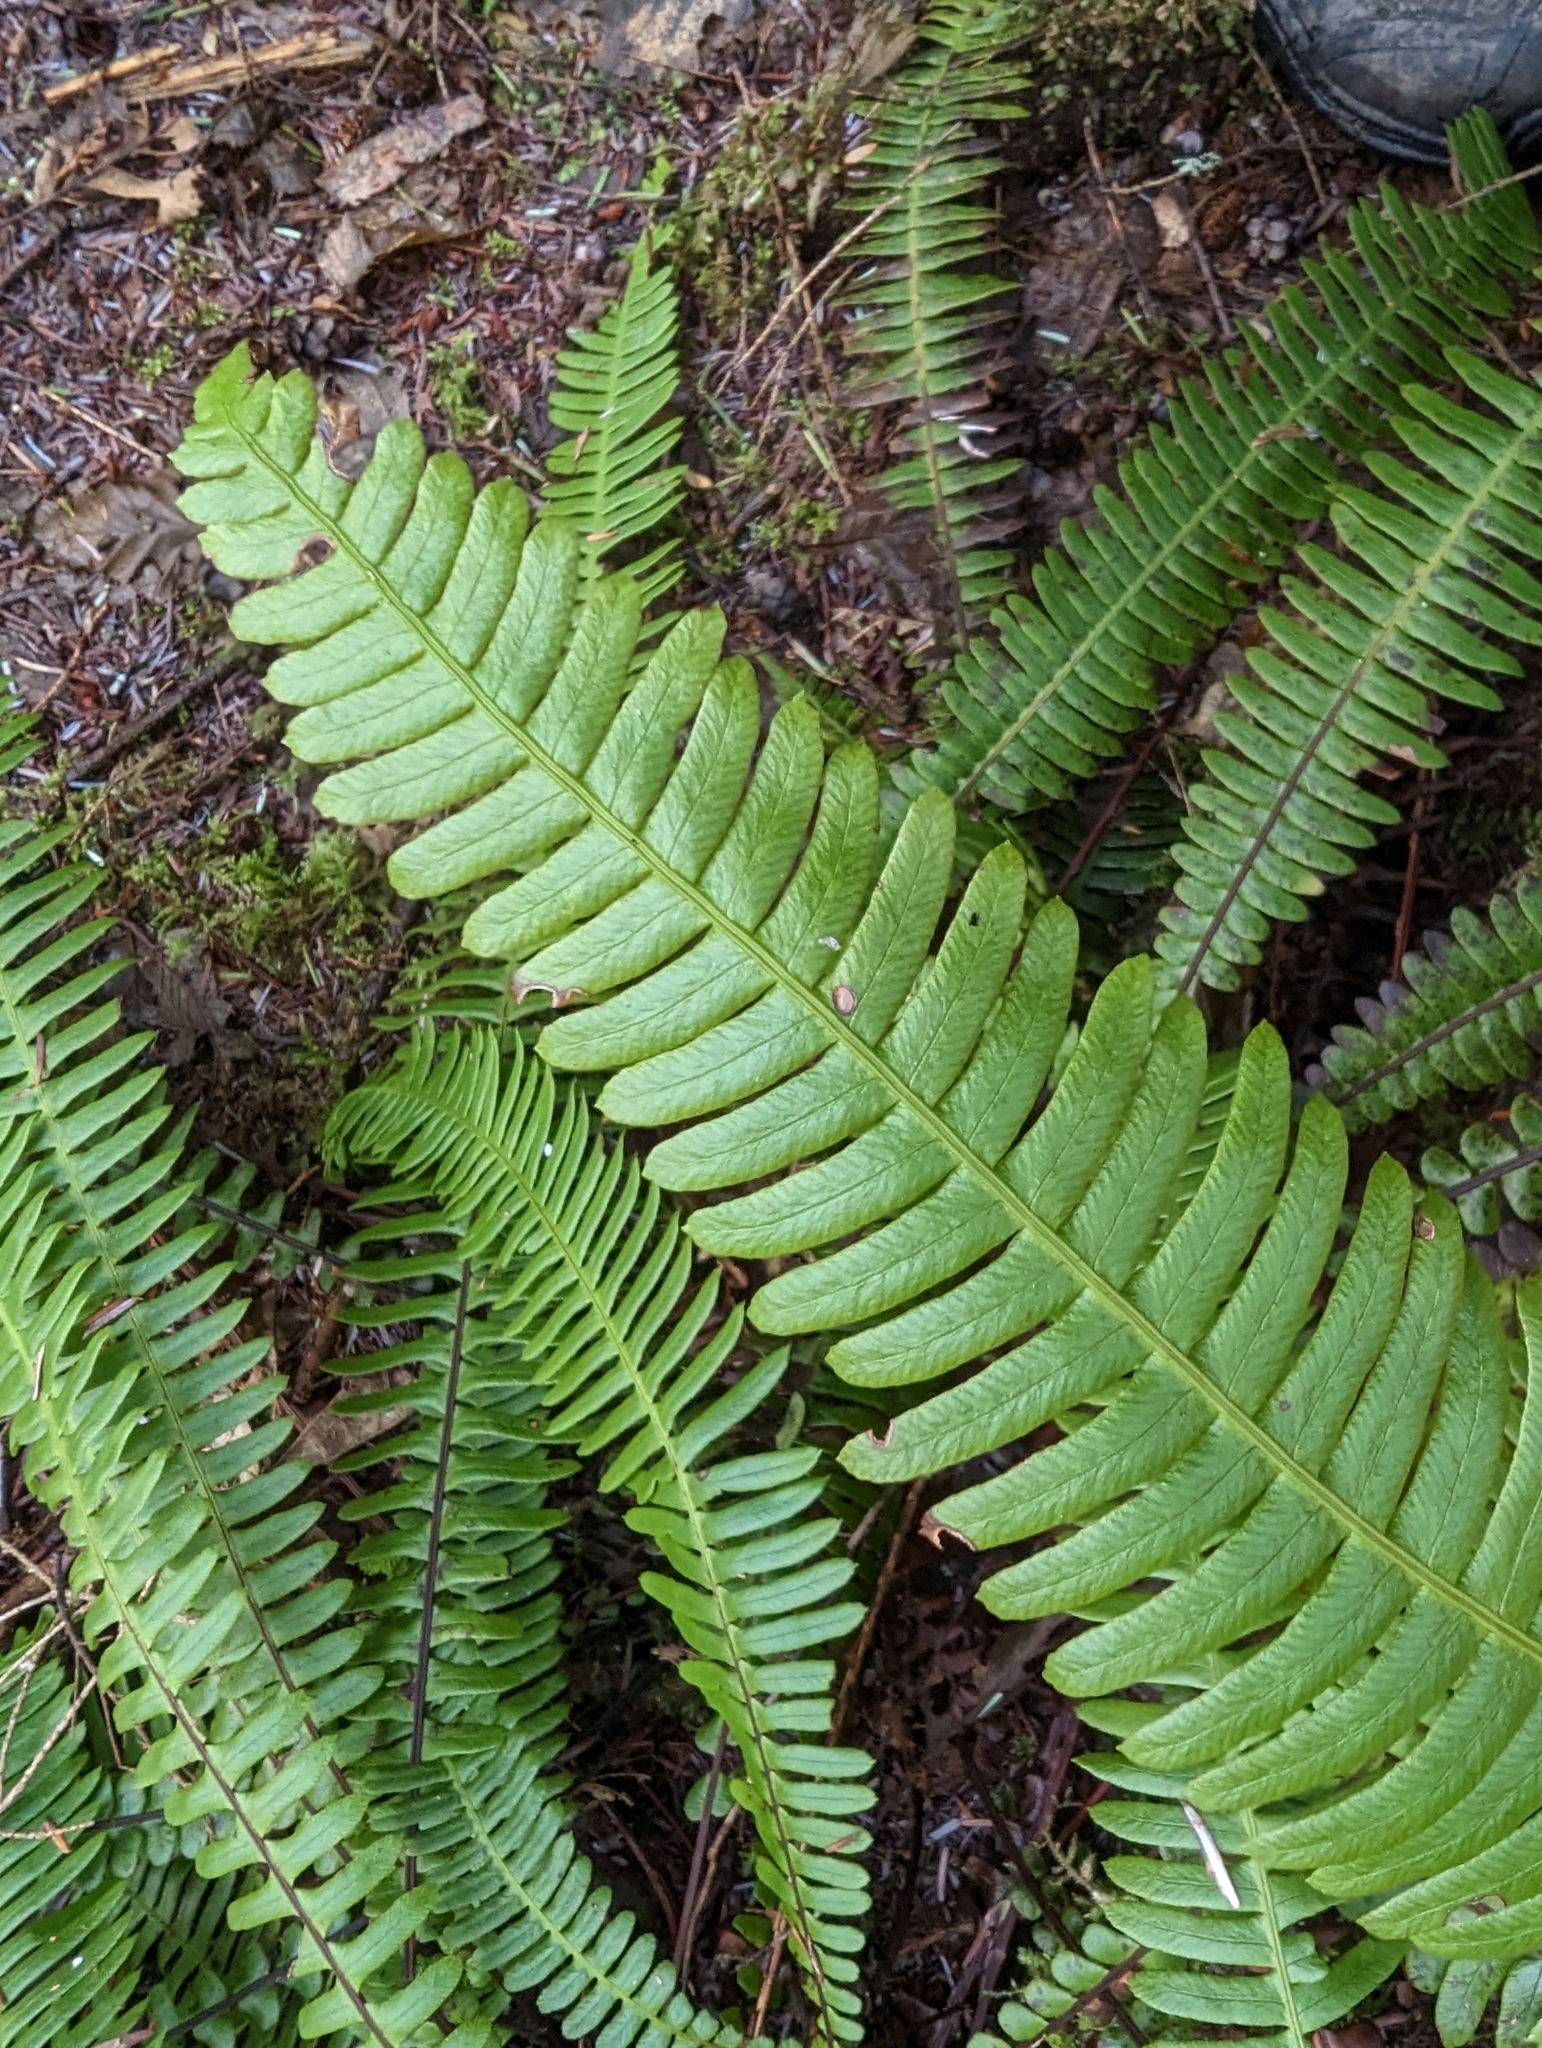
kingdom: Plantae
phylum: Tracheophyta
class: Polypodiopsida
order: Polypodiales
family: Blechnaceae
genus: Struthiopteris
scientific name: Struthiopteris spicant
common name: Deer fern
